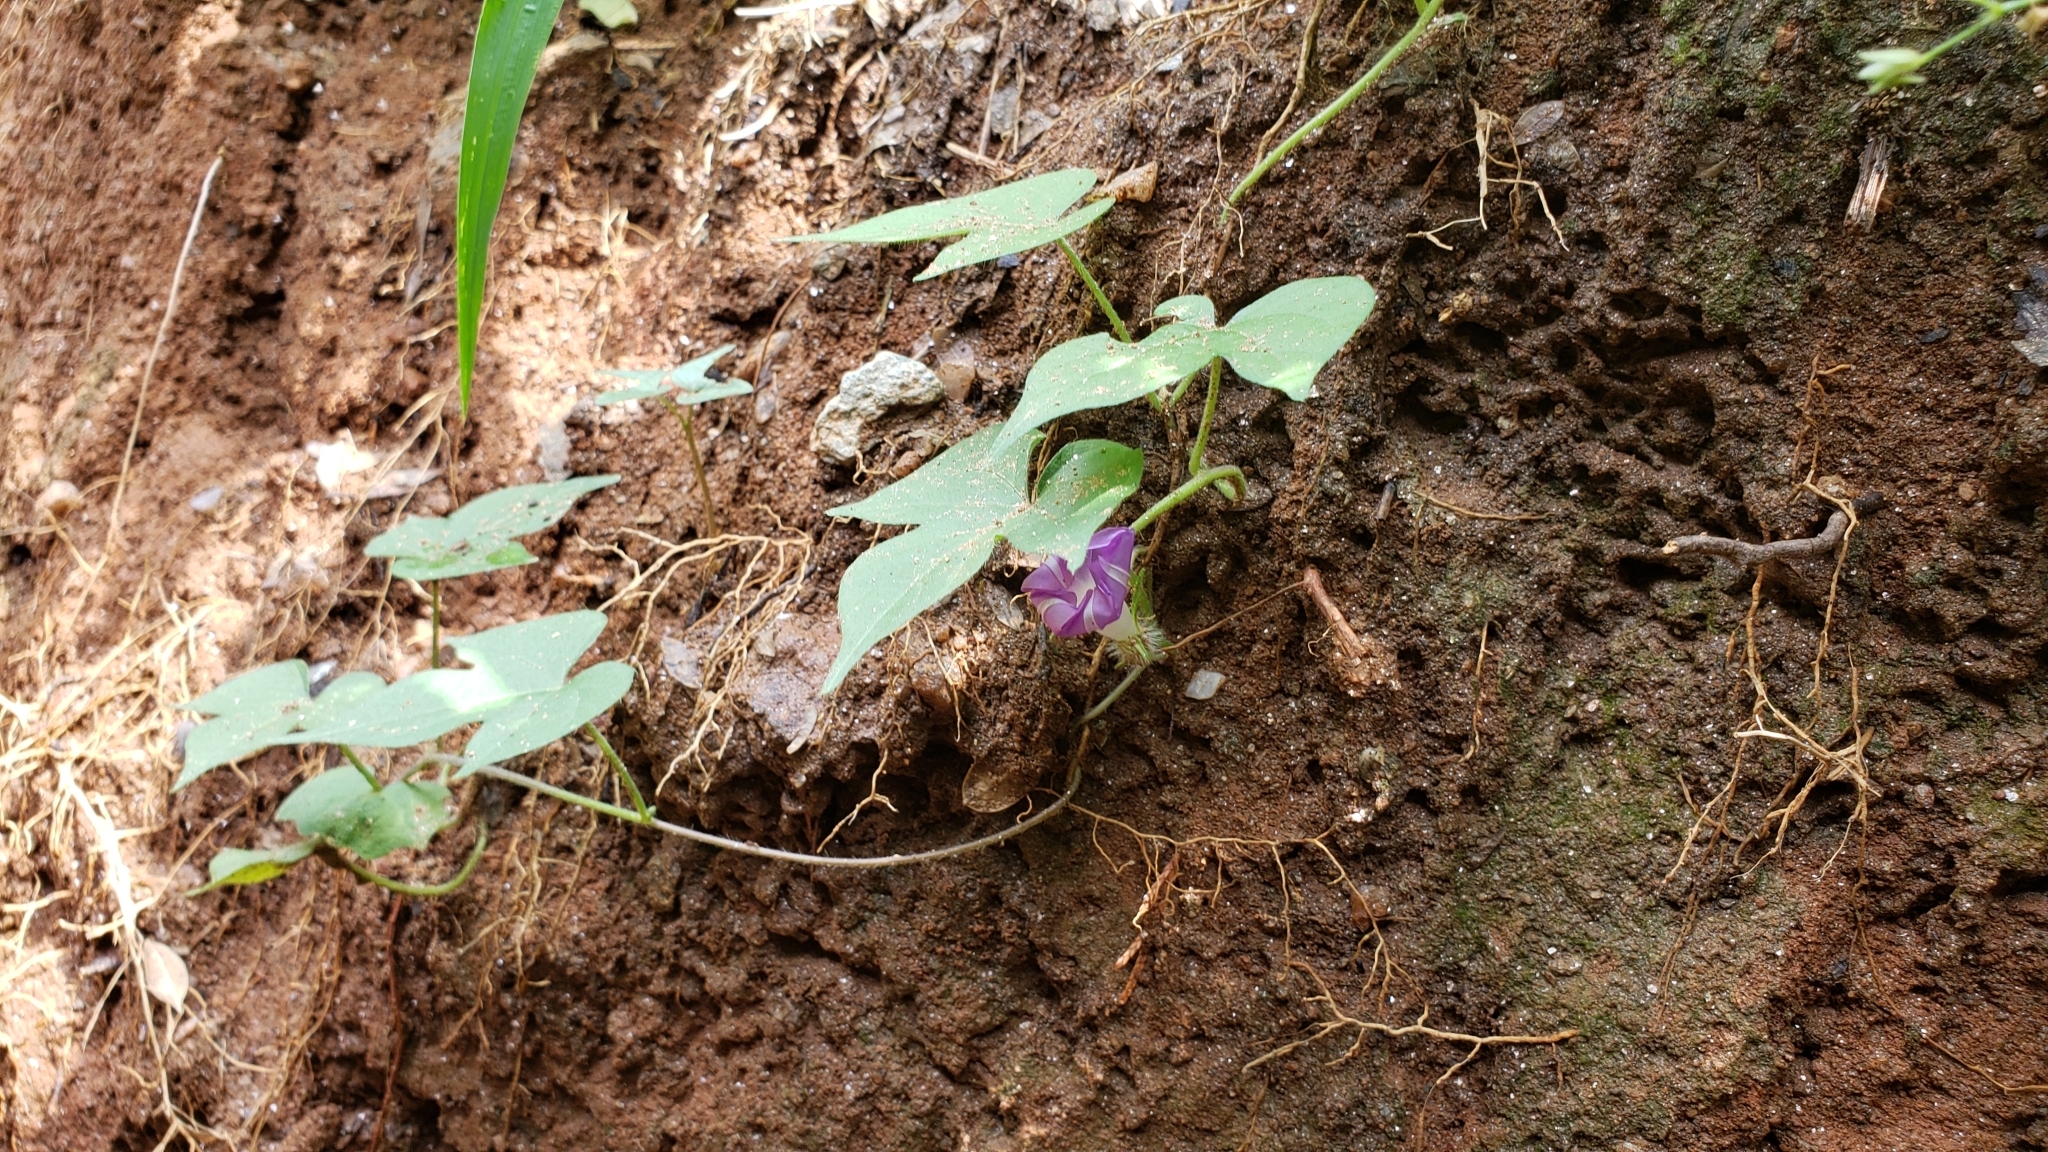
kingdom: Plantae
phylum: Tracheophyta
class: Magnoliopsida
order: Solanales
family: Convolvulaceae
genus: Ipomoea
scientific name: Ipomoea hederacea
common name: Ivy-leaved morning-glory
